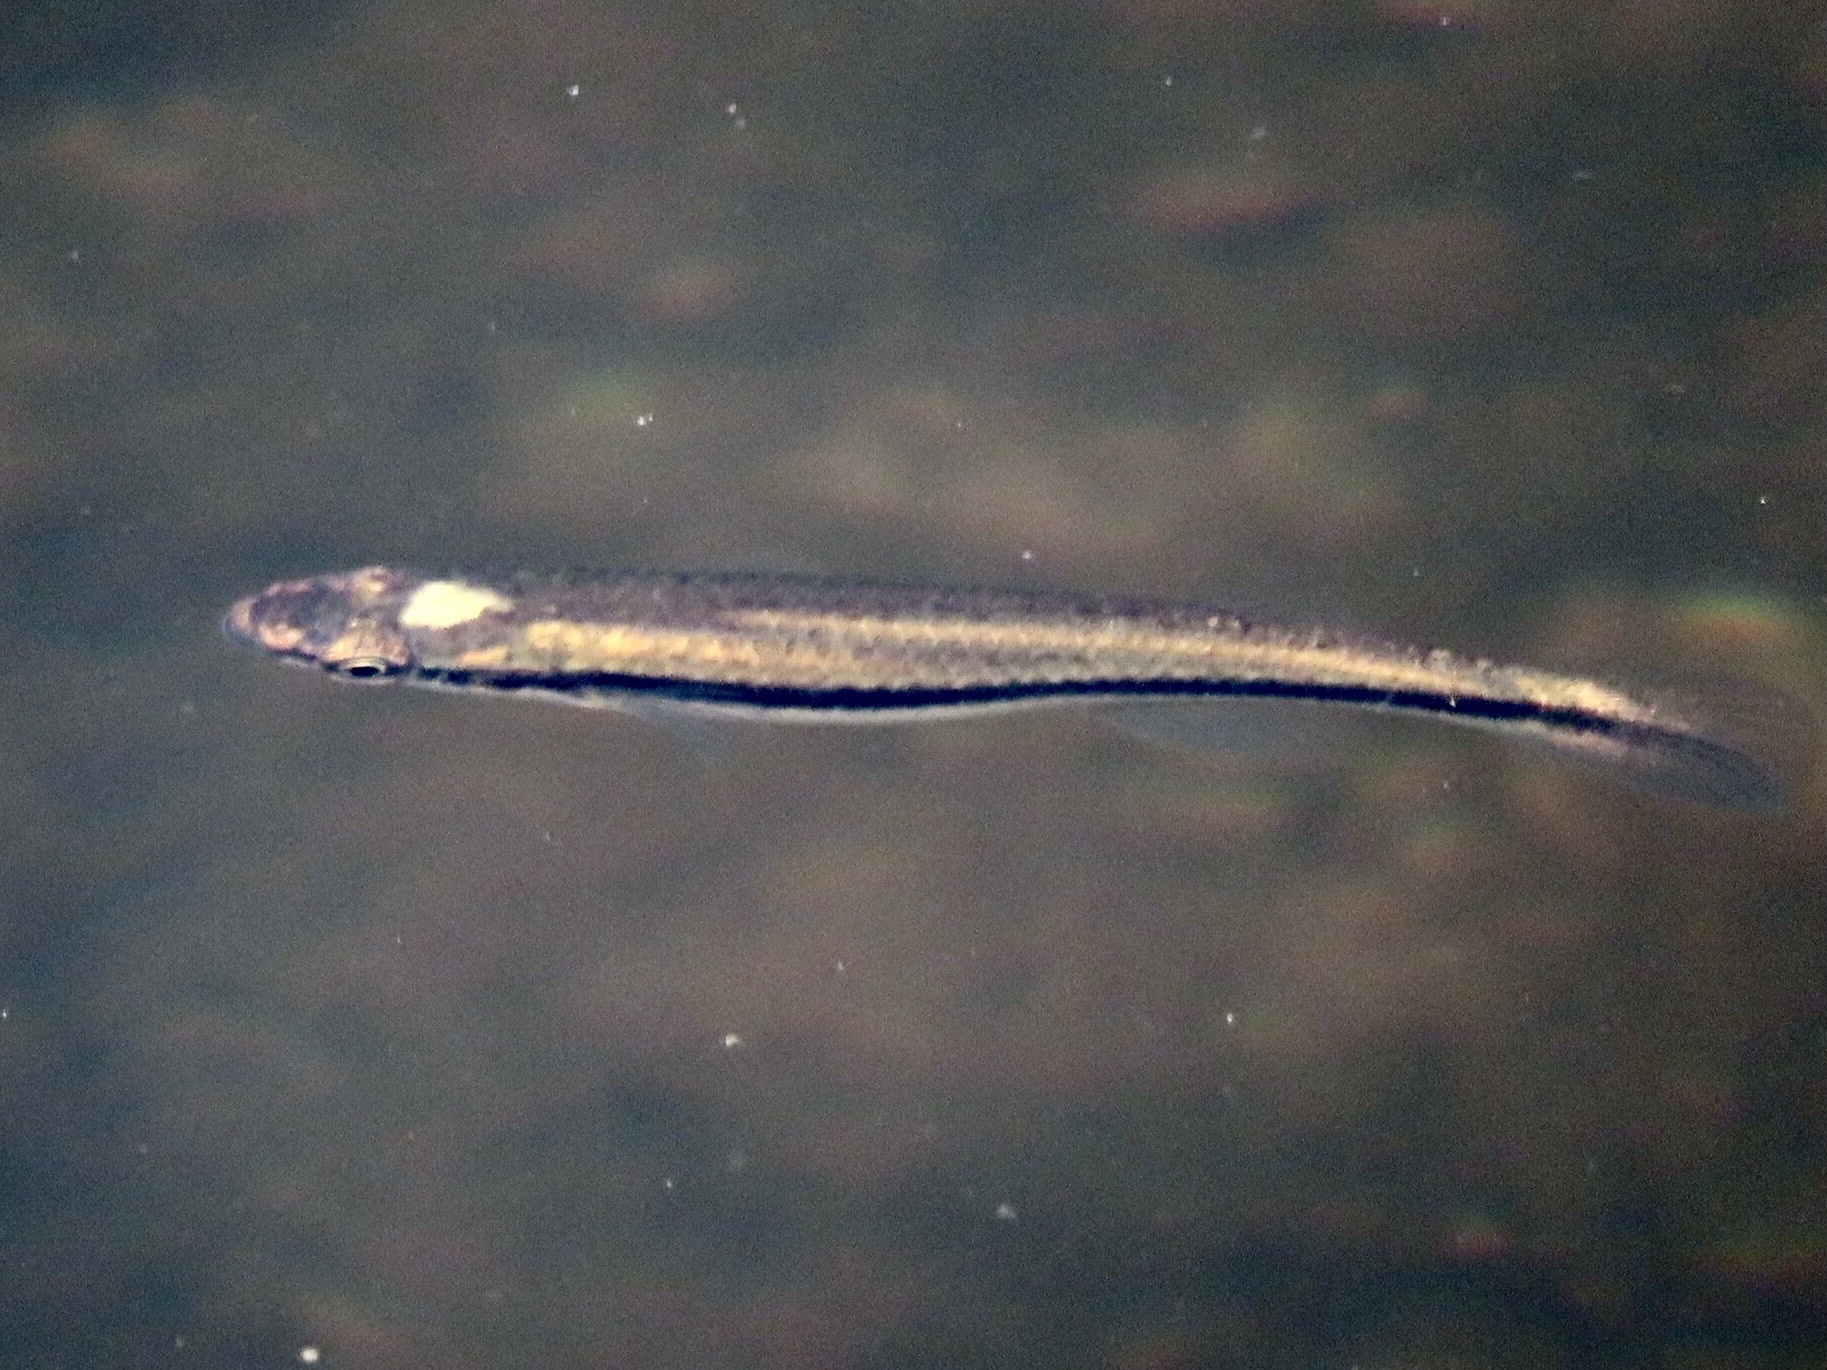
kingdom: Animalia
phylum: Chordata
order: Cyprinodontiformes
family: Fundulidae
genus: Fundulus
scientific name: Fundulus notatus
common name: Blackstripe topminnow
